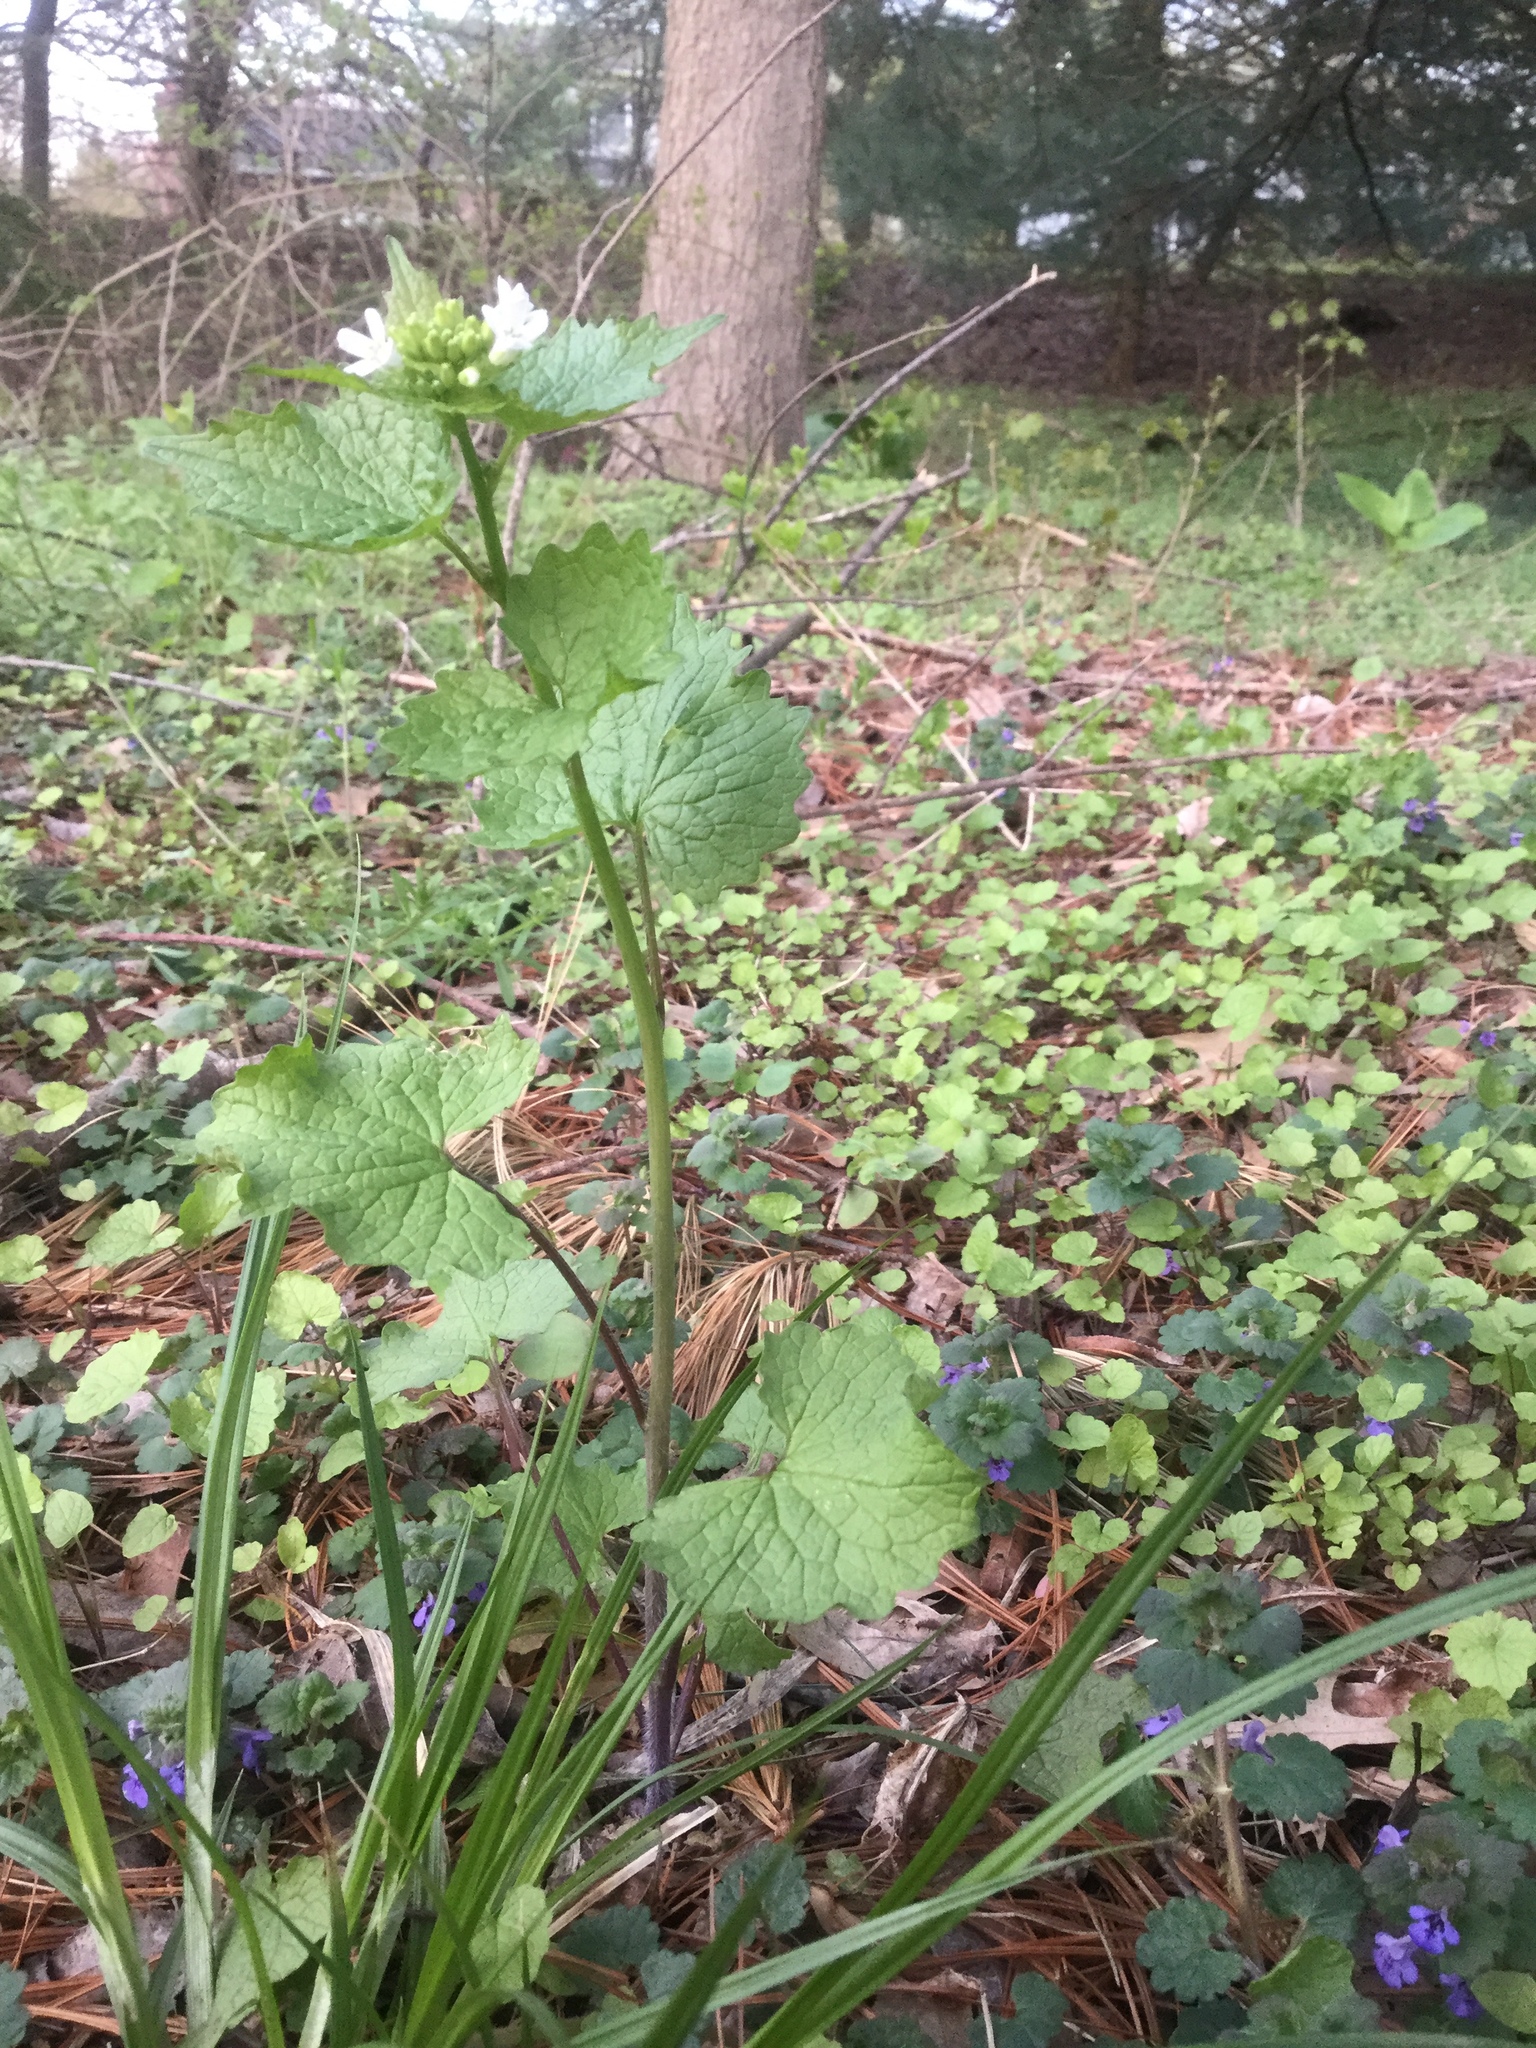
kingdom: Plantae
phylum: Tracheophyta
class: Magnoliopsida
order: Brassicales
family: Brassicaceae
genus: Alliaria
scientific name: Alliaria petiolata
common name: Garlic mustard
